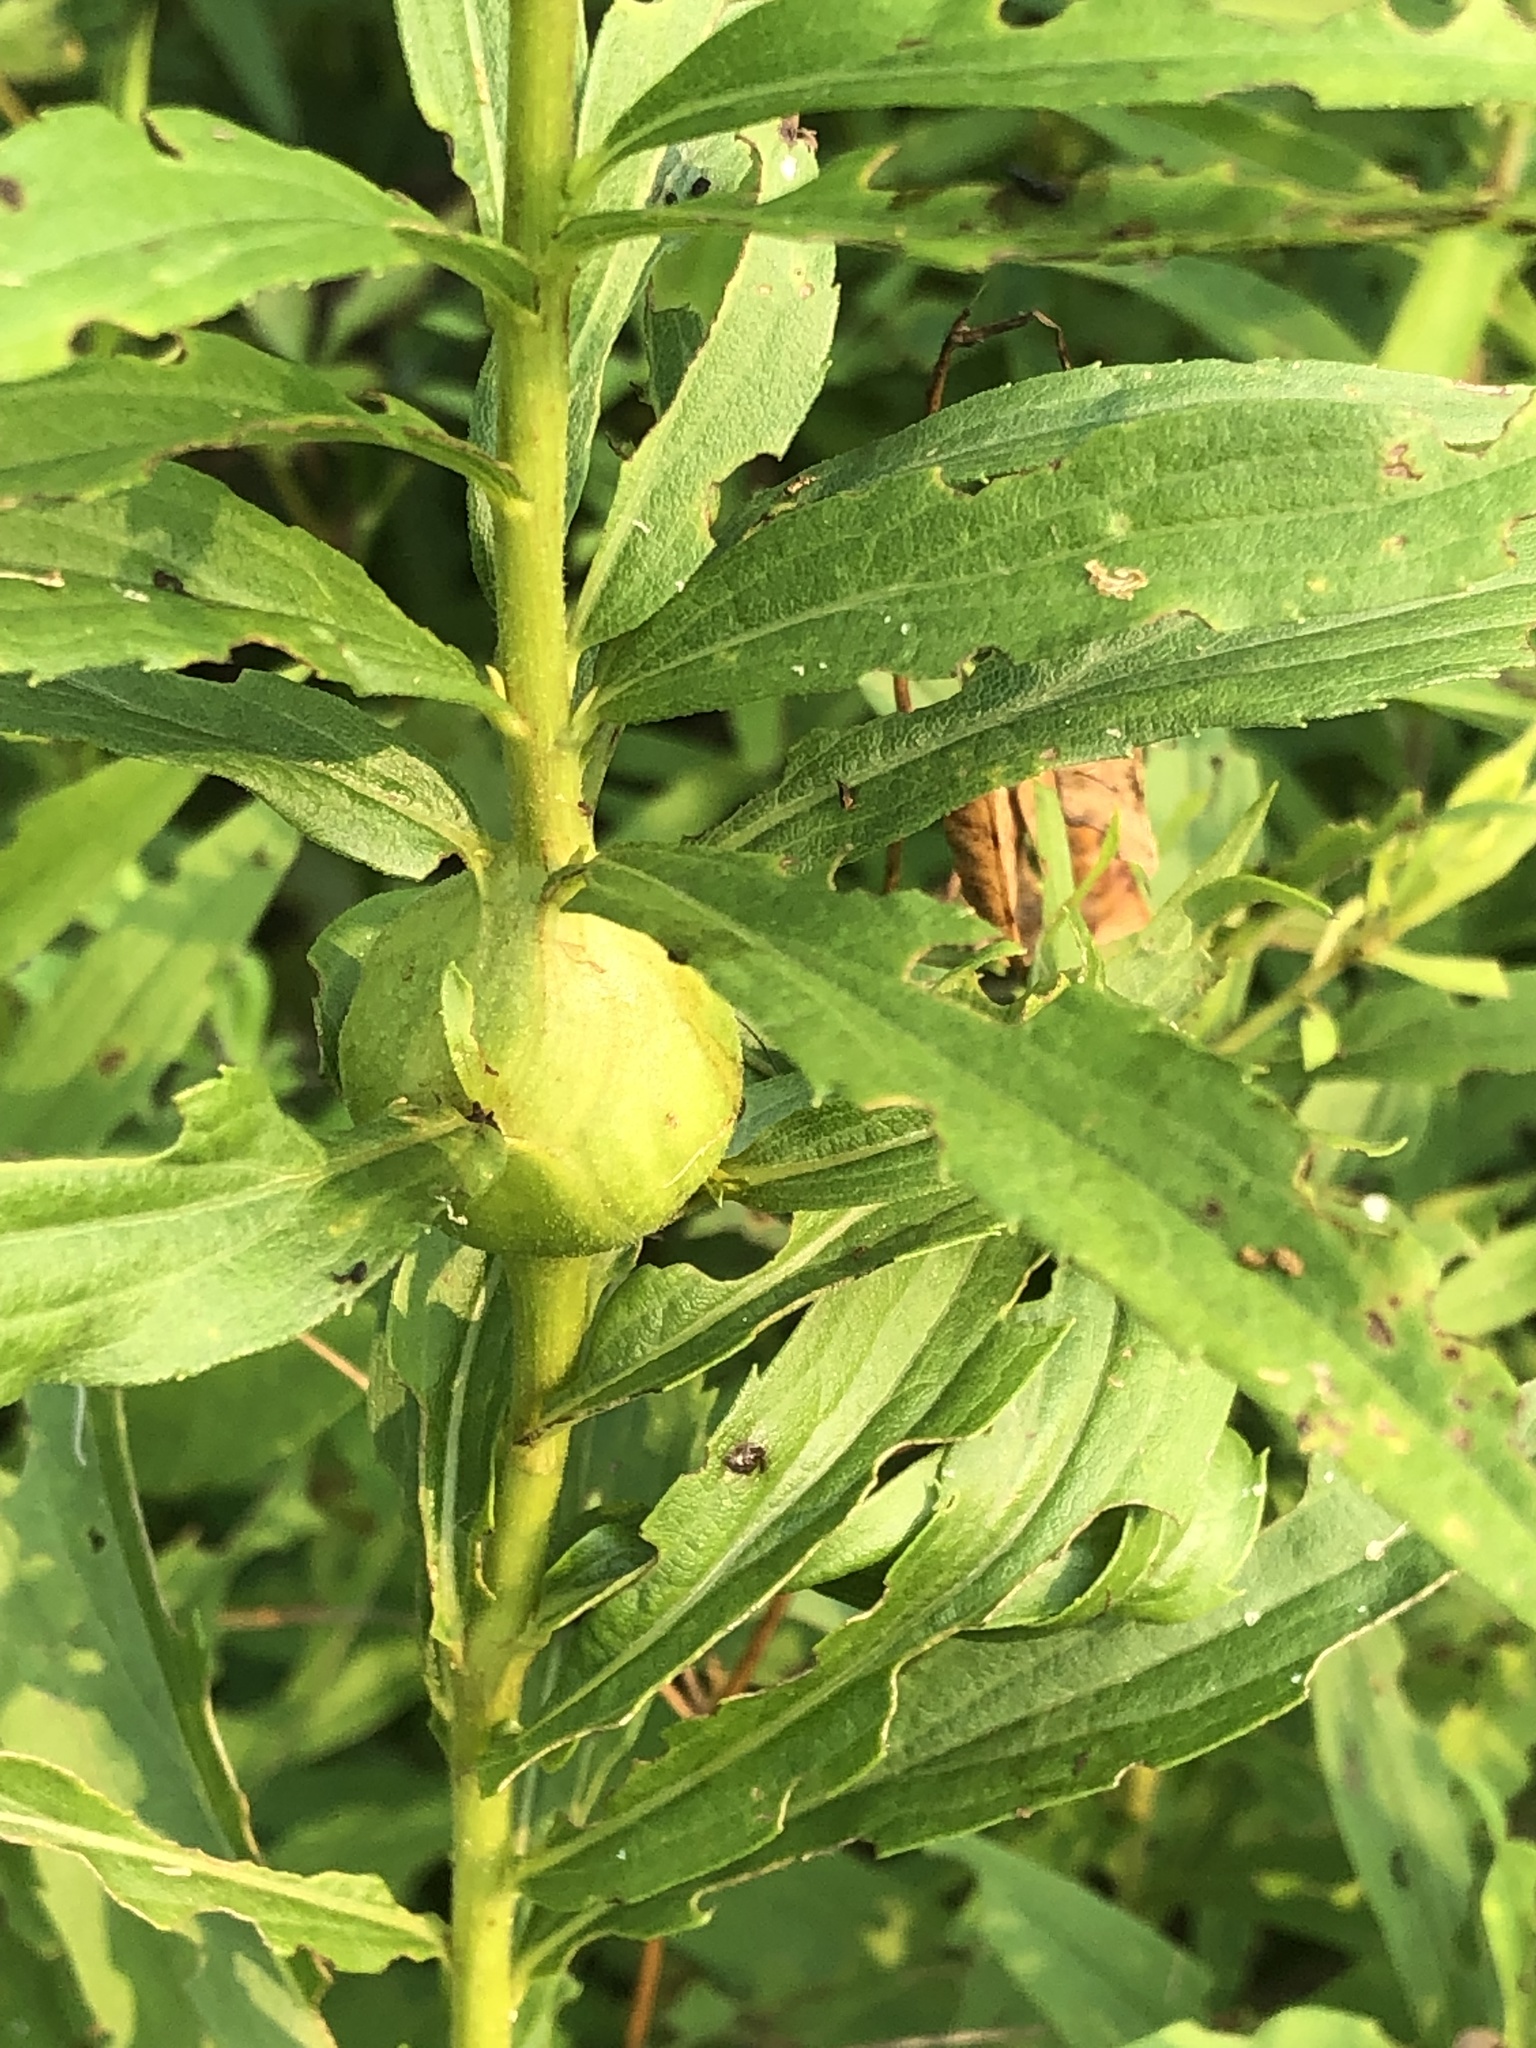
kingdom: Animalia
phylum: Arthropoda
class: Insecta
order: Diptera
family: Tephritidae
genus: Eurosta
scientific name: Eurosta solidaginis
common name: Goldenrod gall fly
